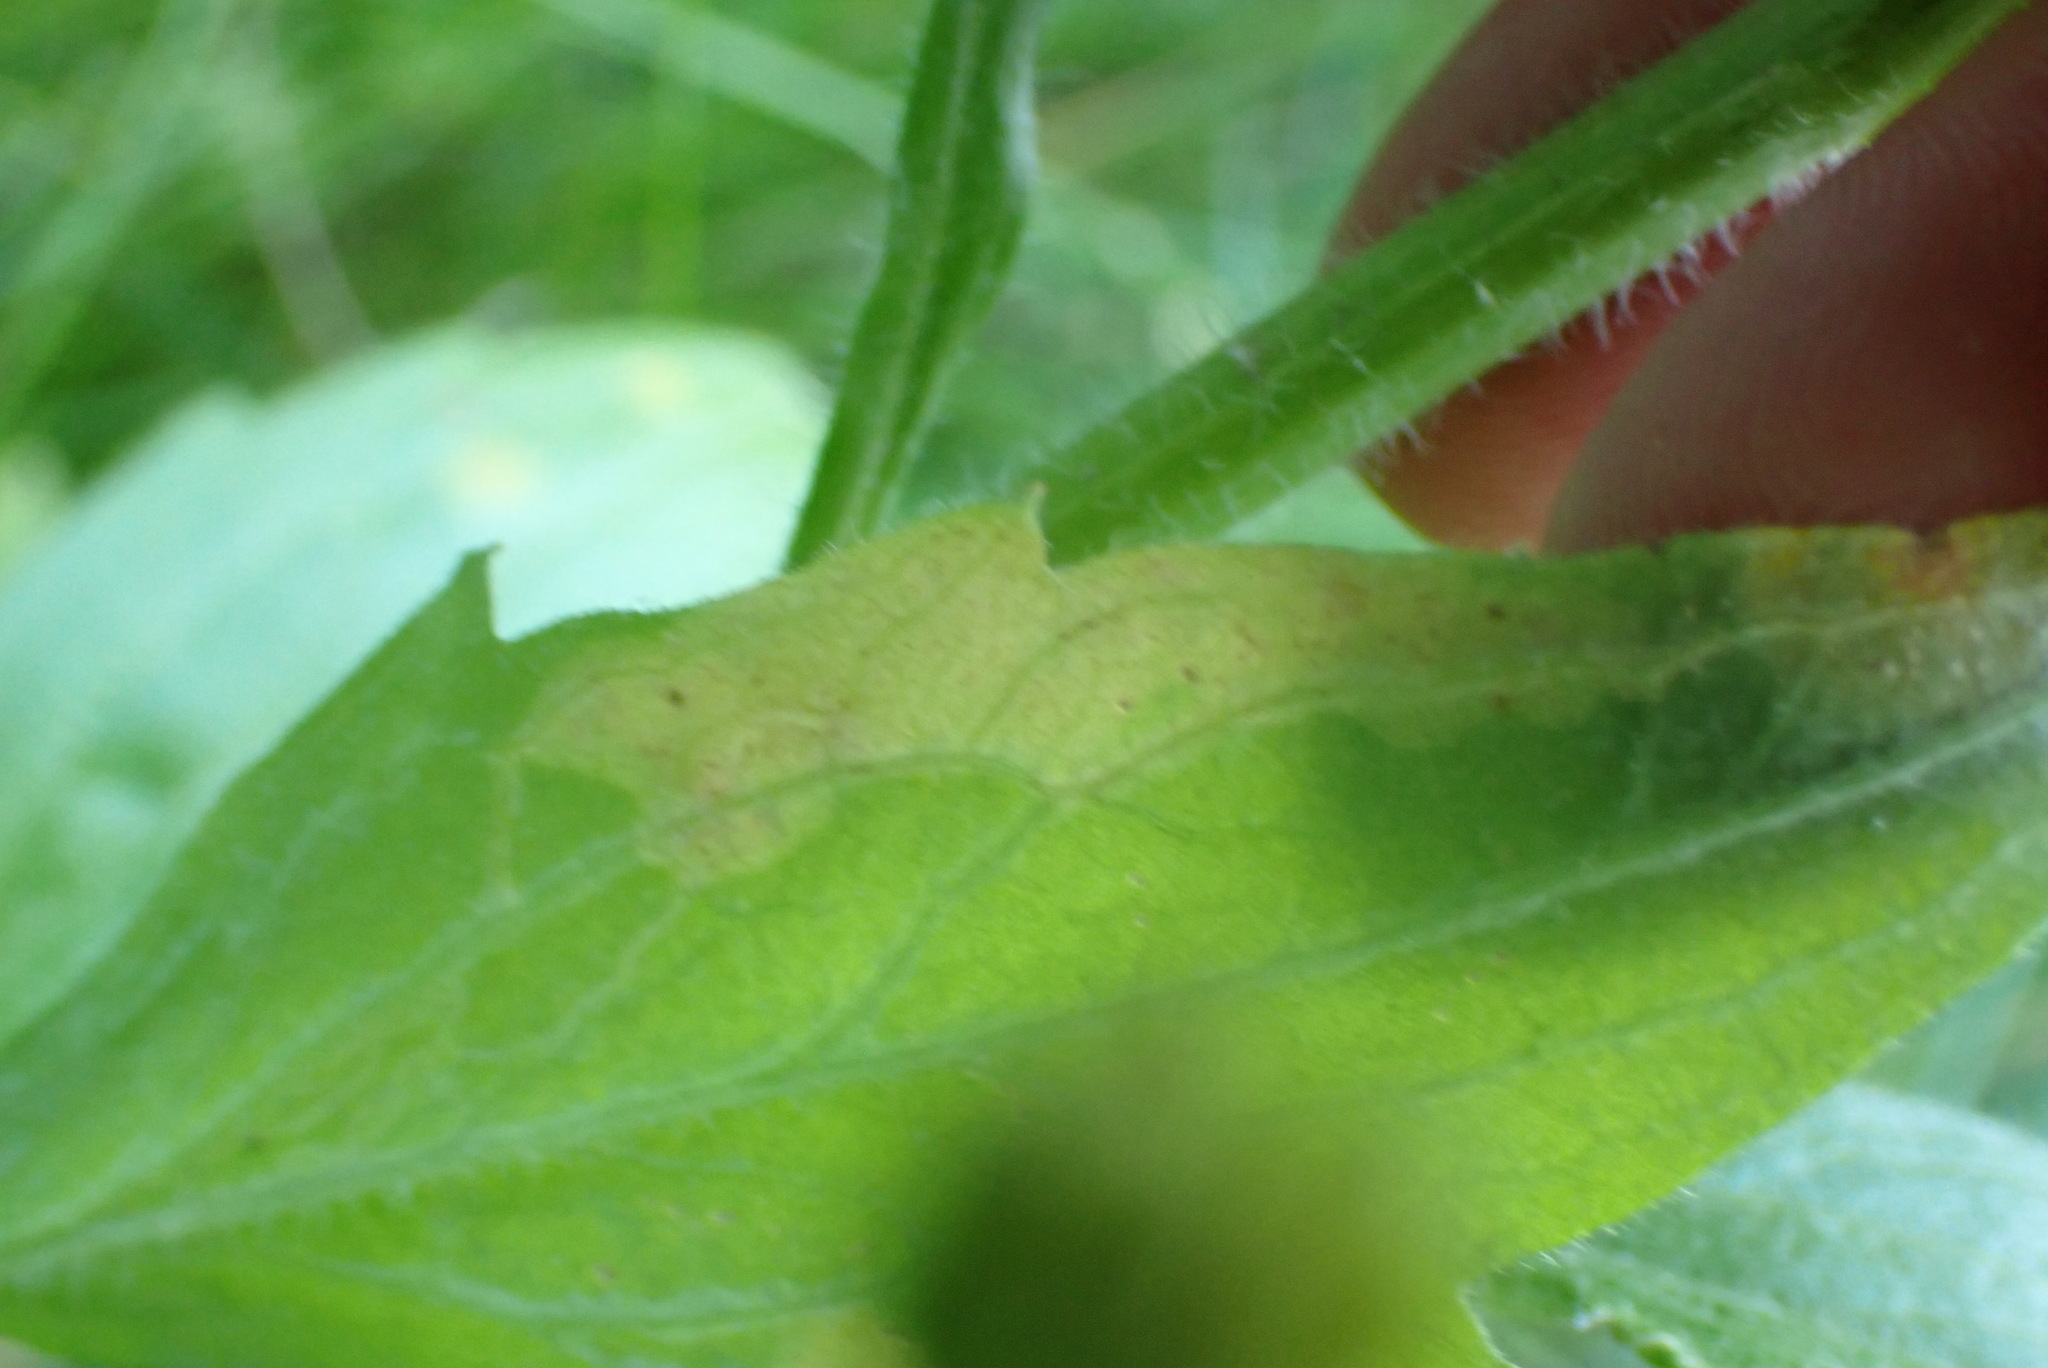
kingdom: Animalia
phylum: Arthropoda
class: Insecta
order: Lepidoptera
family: Gracillariidae
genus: Parectopa
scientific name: Parectopa plantaginisella
